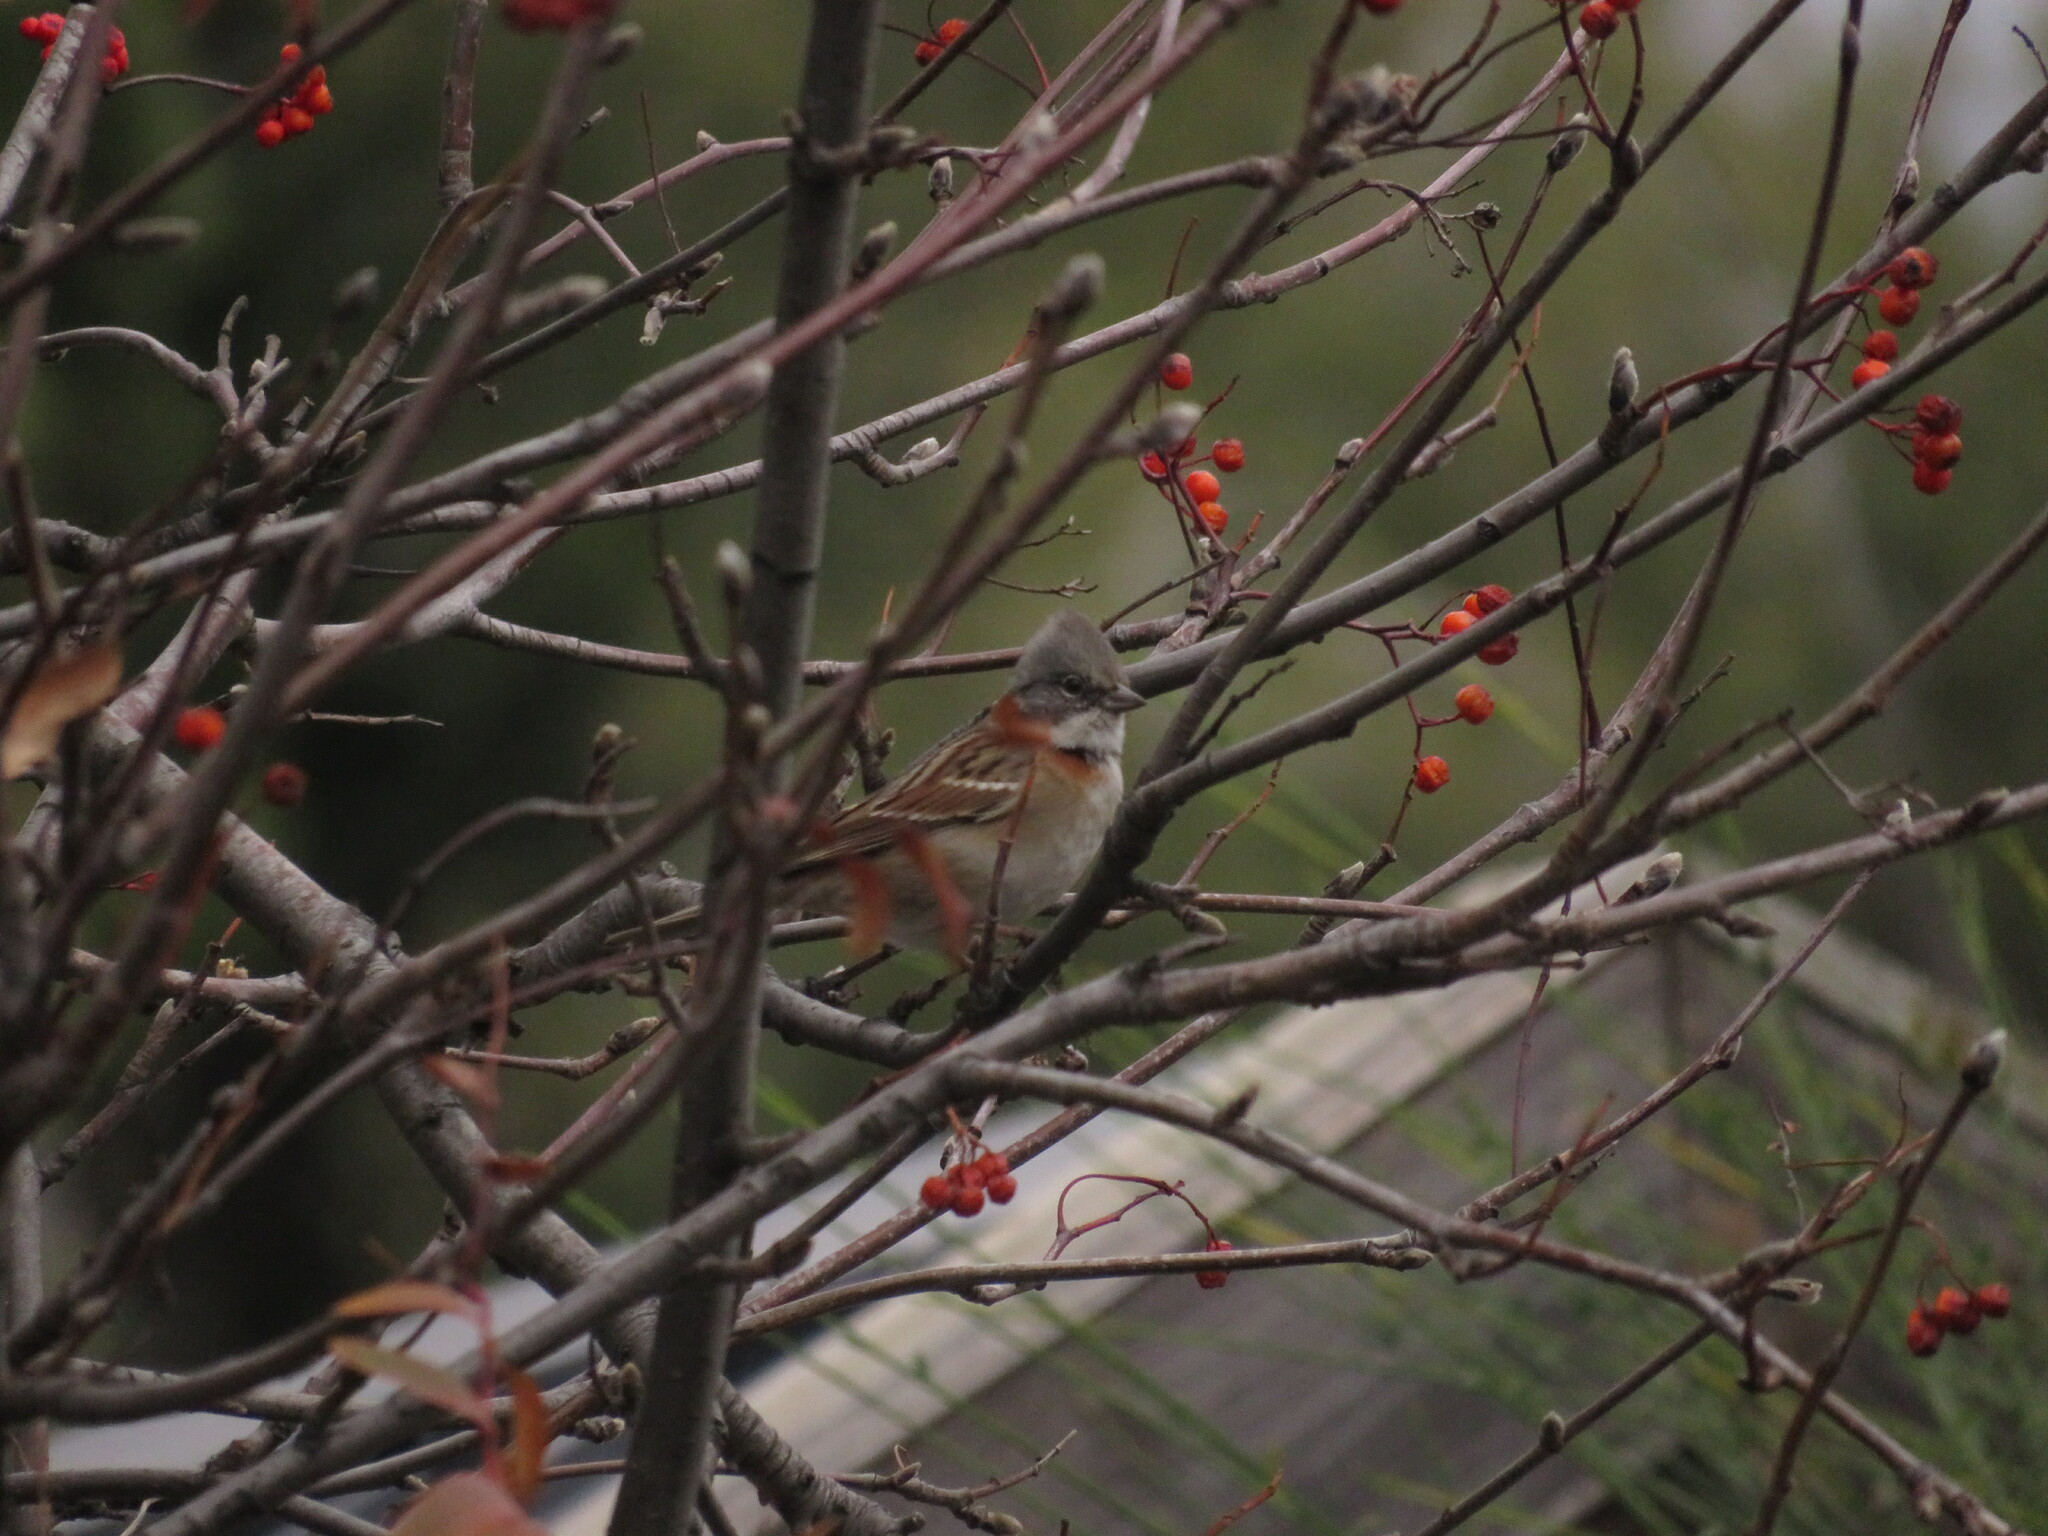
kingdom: Animalia
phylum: Chordata
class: Aves
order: Passeriformes
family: Passerellidae
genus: Zonotrichia
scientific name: Zonotrichia capensis
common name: Rufous-collared sparrow
